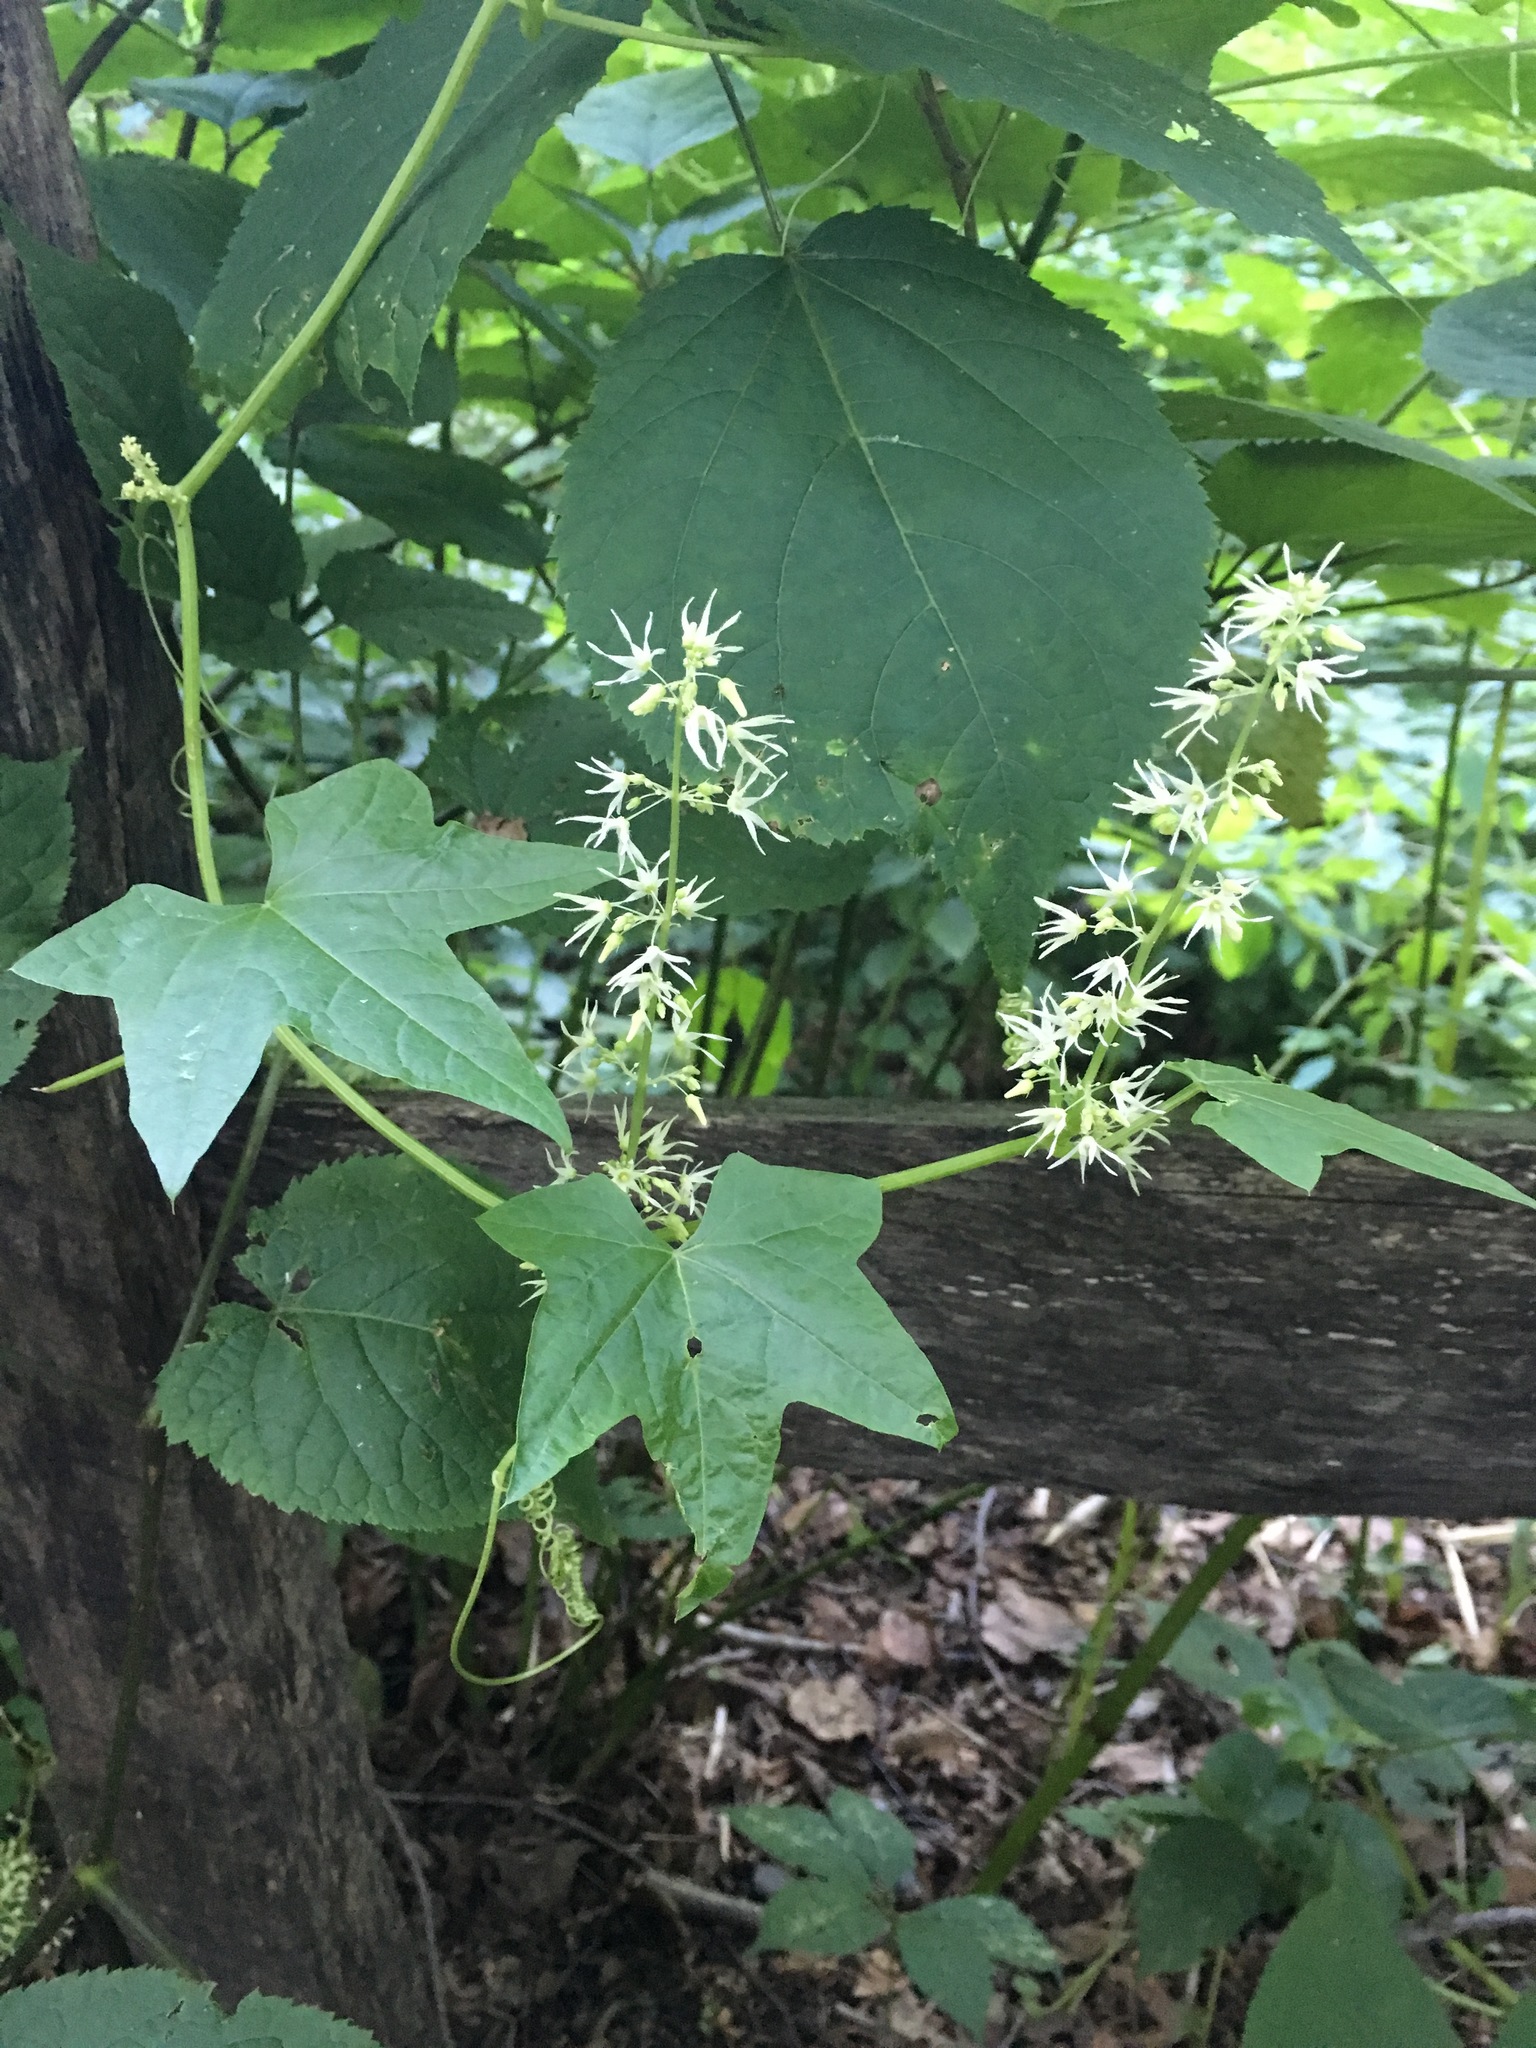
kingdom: Plantae
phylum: Tracheophyta
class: Magnoliopsida
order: Cucurbitales
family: Cucurbitaceae
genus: Echinocystis
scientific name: Echinocystis lobata
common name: Wild cucumber
